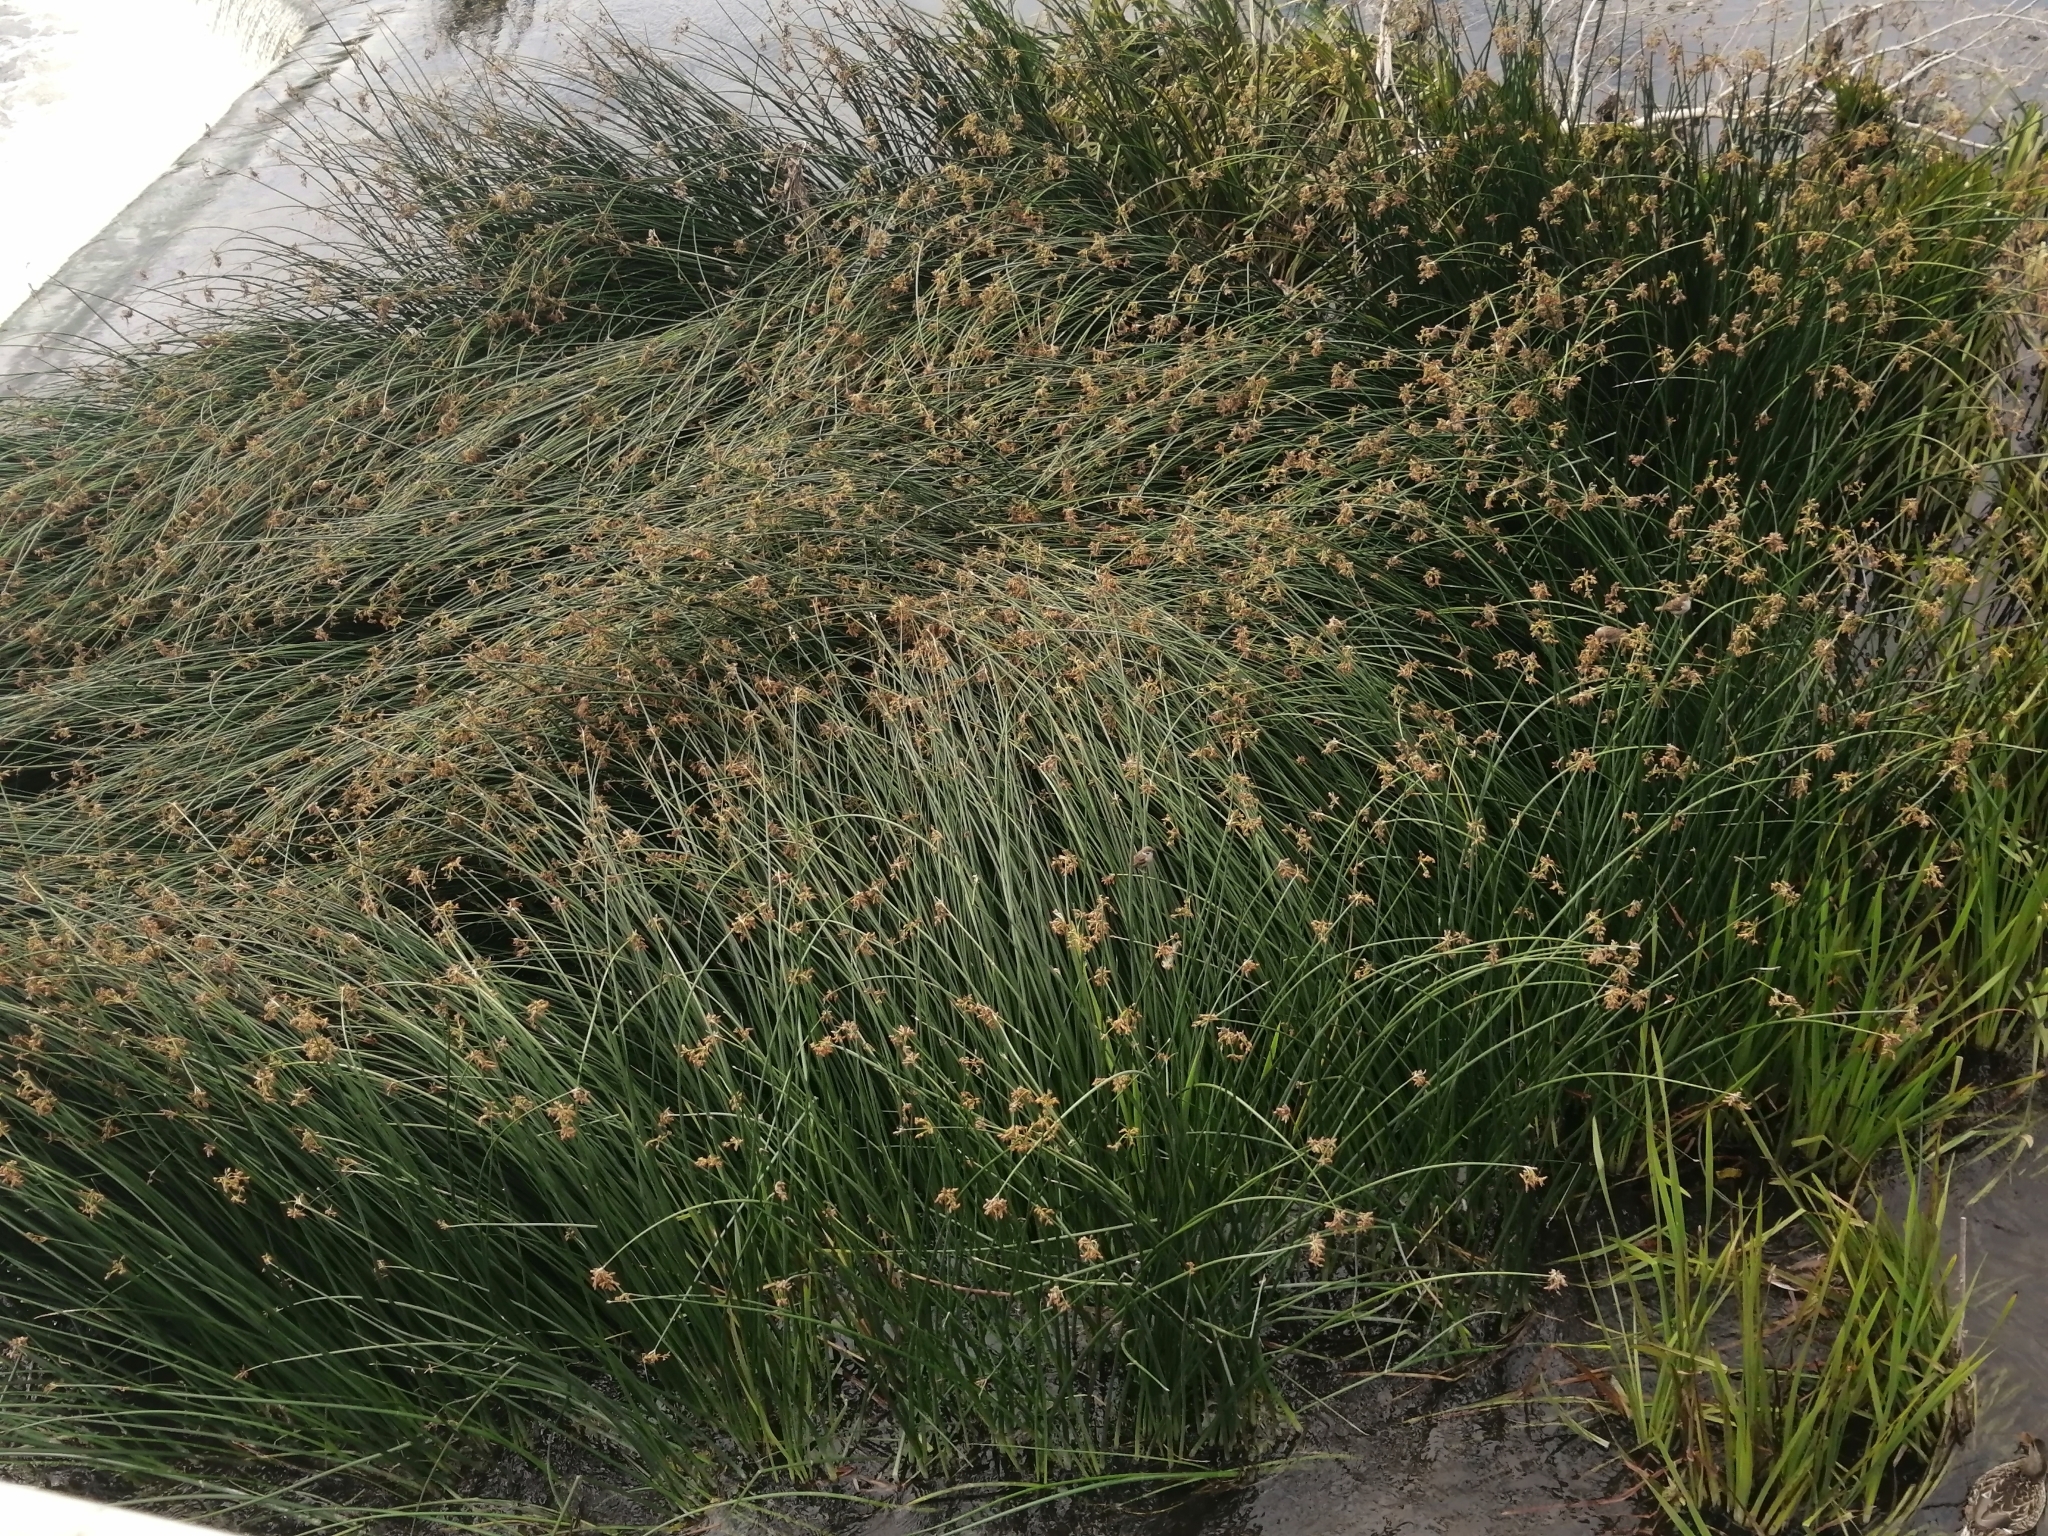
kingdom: Plantae
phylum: Tracheophyta
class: Liliopsida
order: Poales
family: Cyperaceae
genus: Schoenoplectus
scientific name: Schoenoplectus lacustris
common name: Common club-rush
